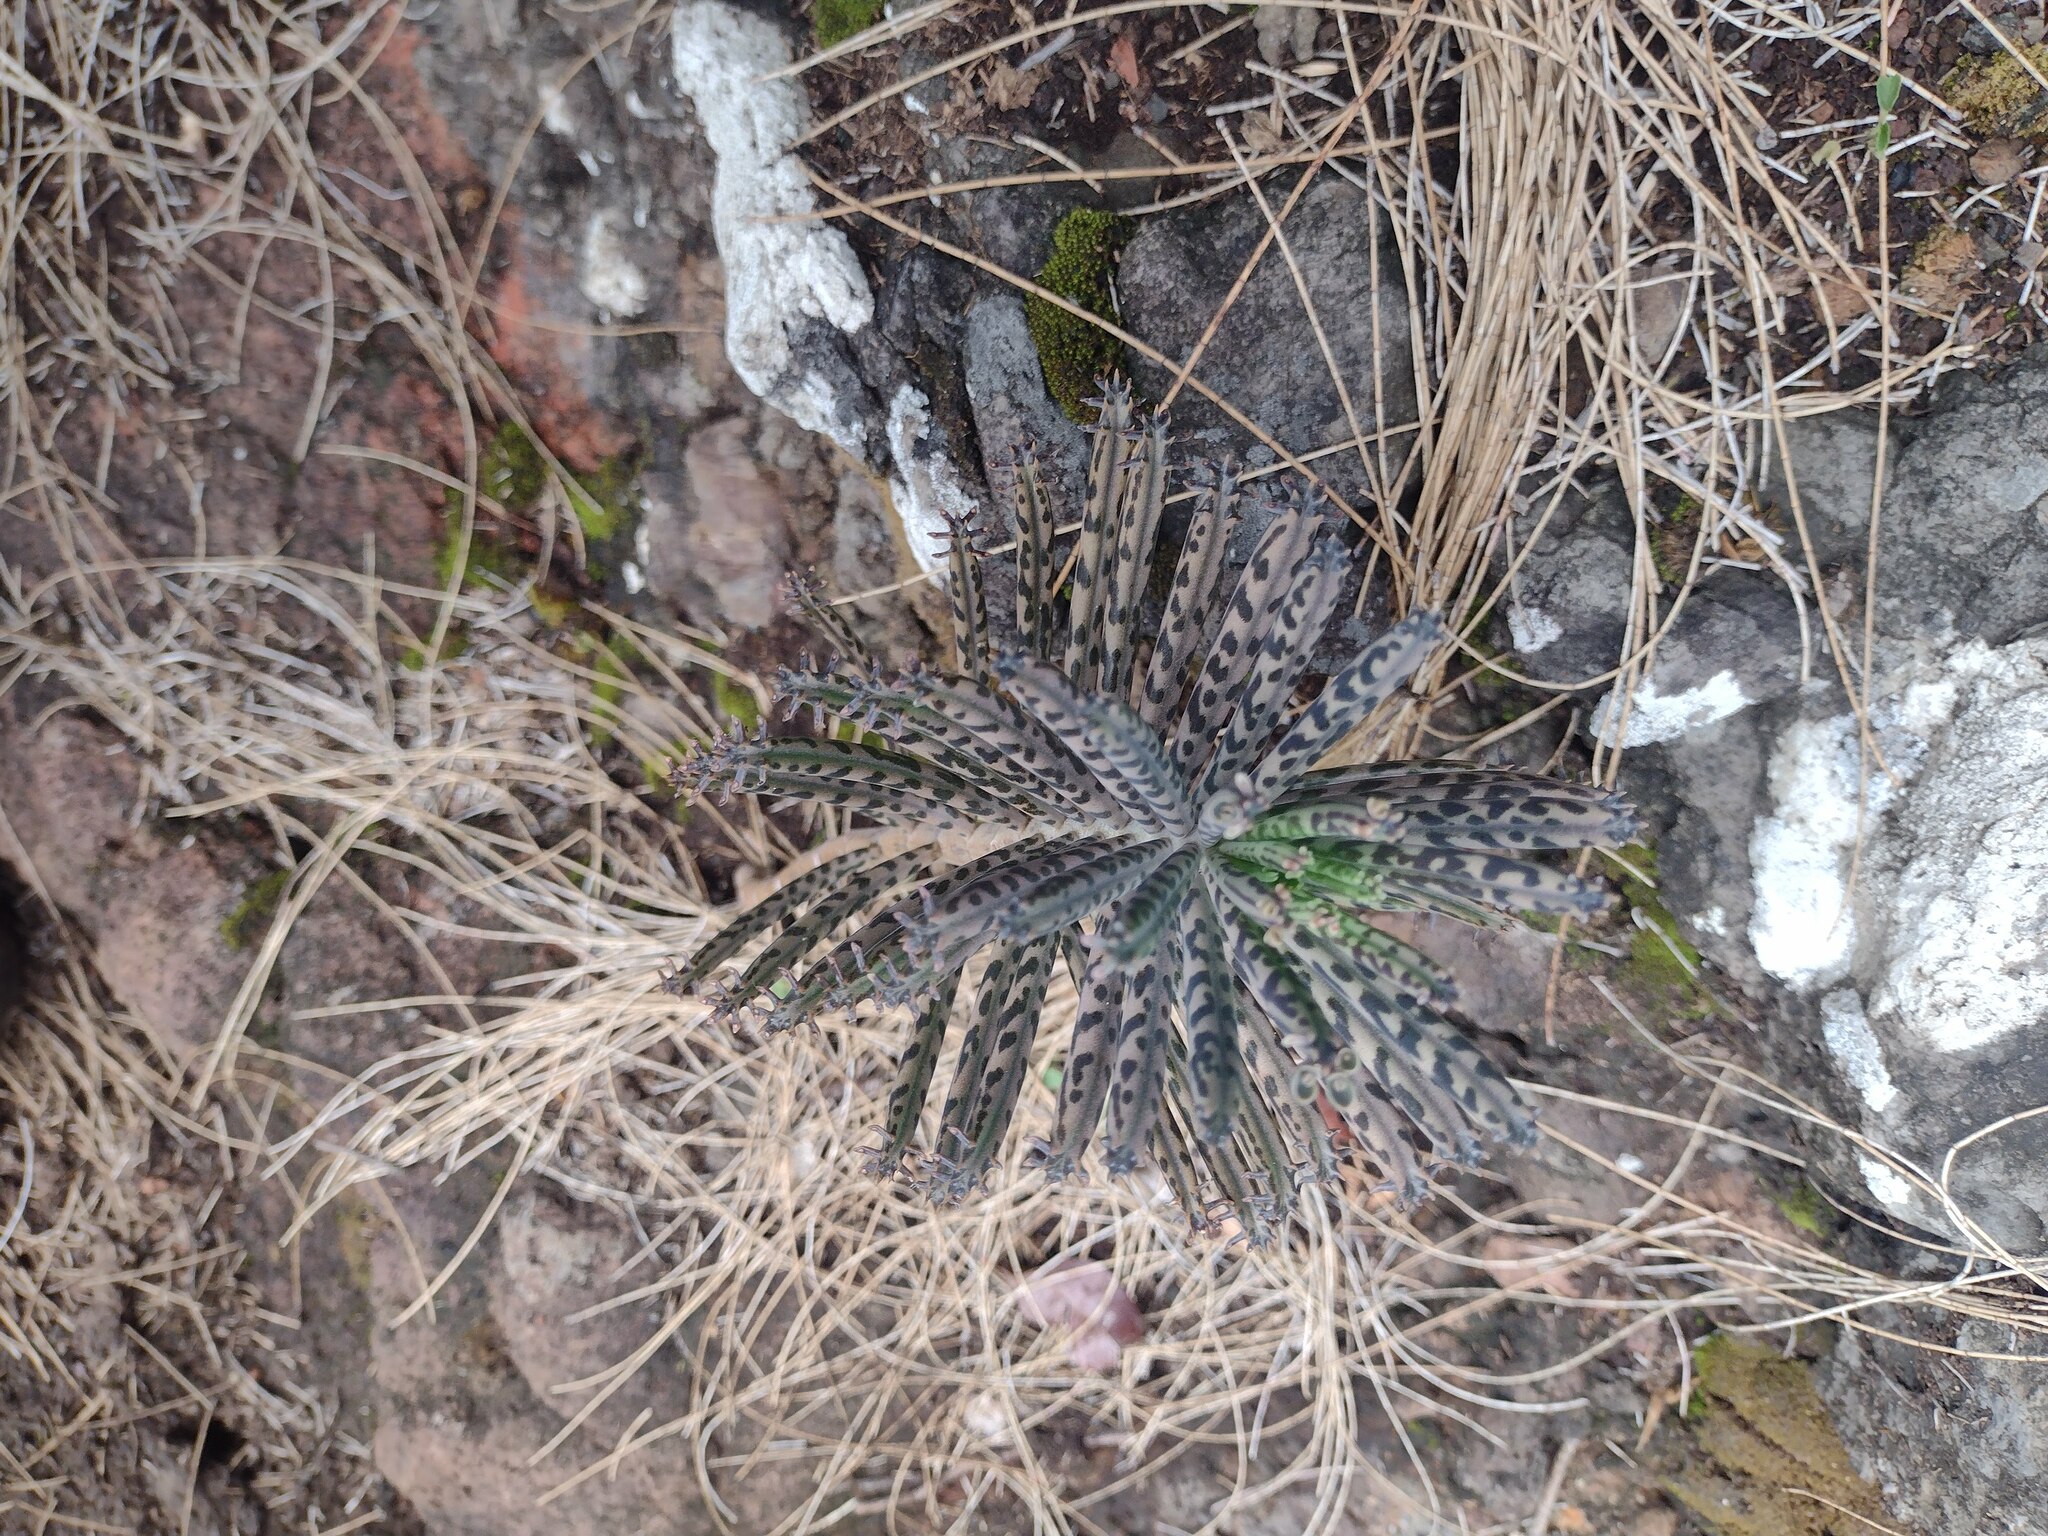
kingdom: Plantae
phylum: Tracheophyta
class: Magnoliopsida
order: Saxifragales
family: Crassulaceae
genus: Kalanchoe
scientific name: Kalanchoe delagoensis
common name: Chandelier plant
